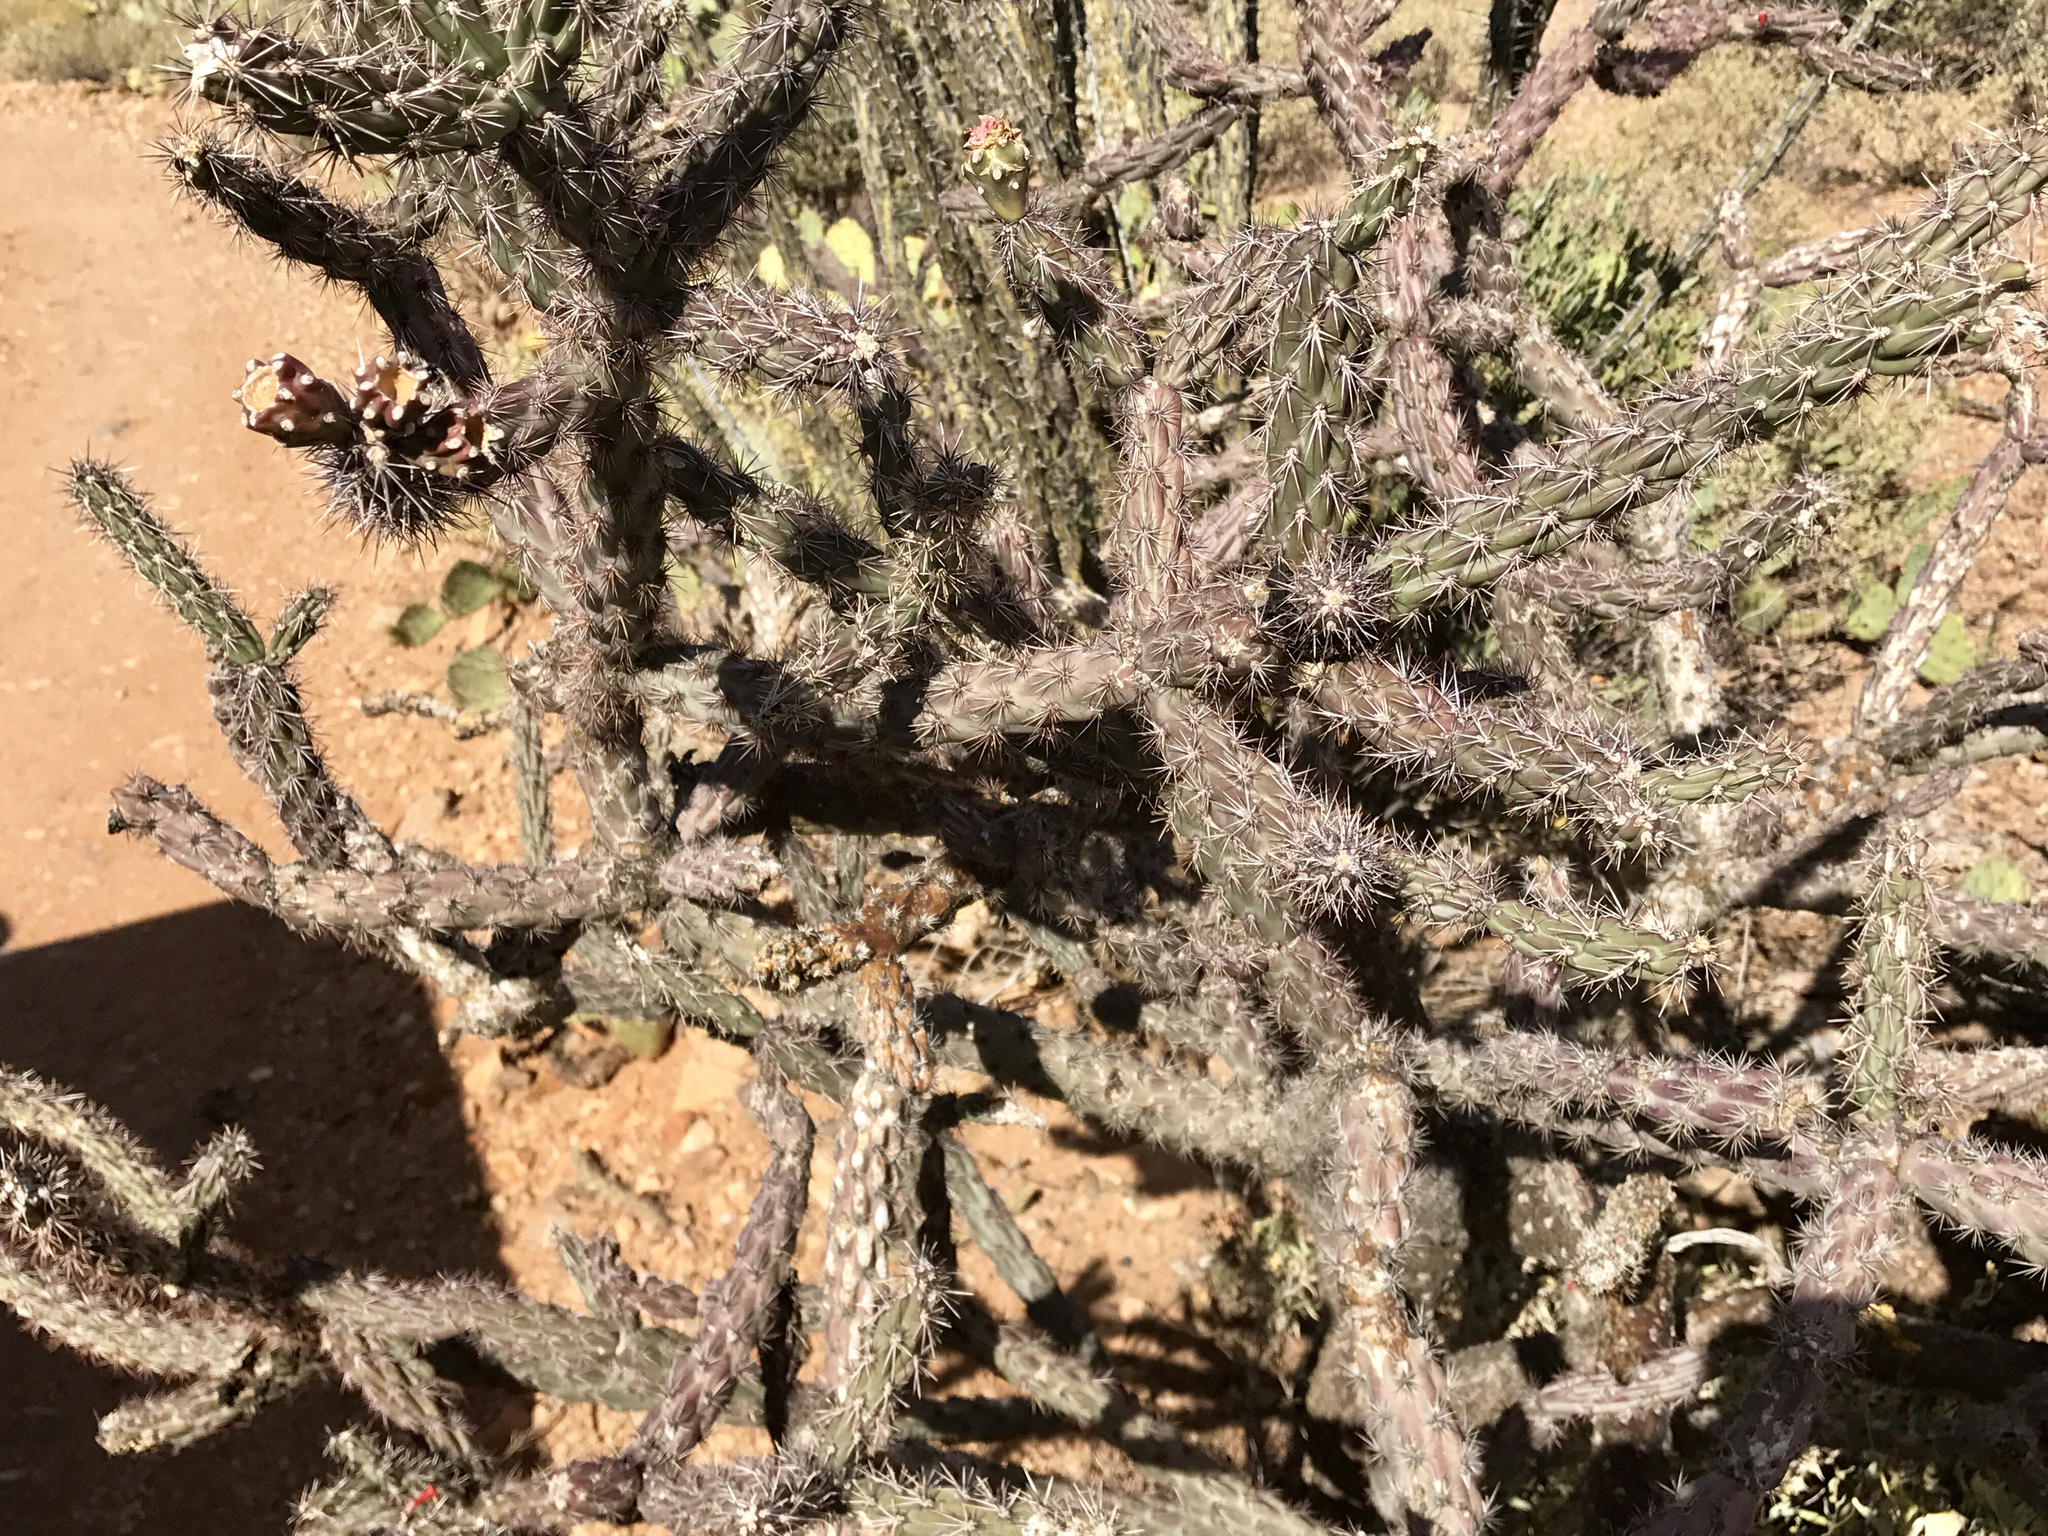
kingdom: Plantae
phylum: Tracheophyta
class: Magnoliopsida
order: Caryophyllales
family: Cactaceae
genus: Cylindropuntia
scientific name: Cylindropuntia thurberi
